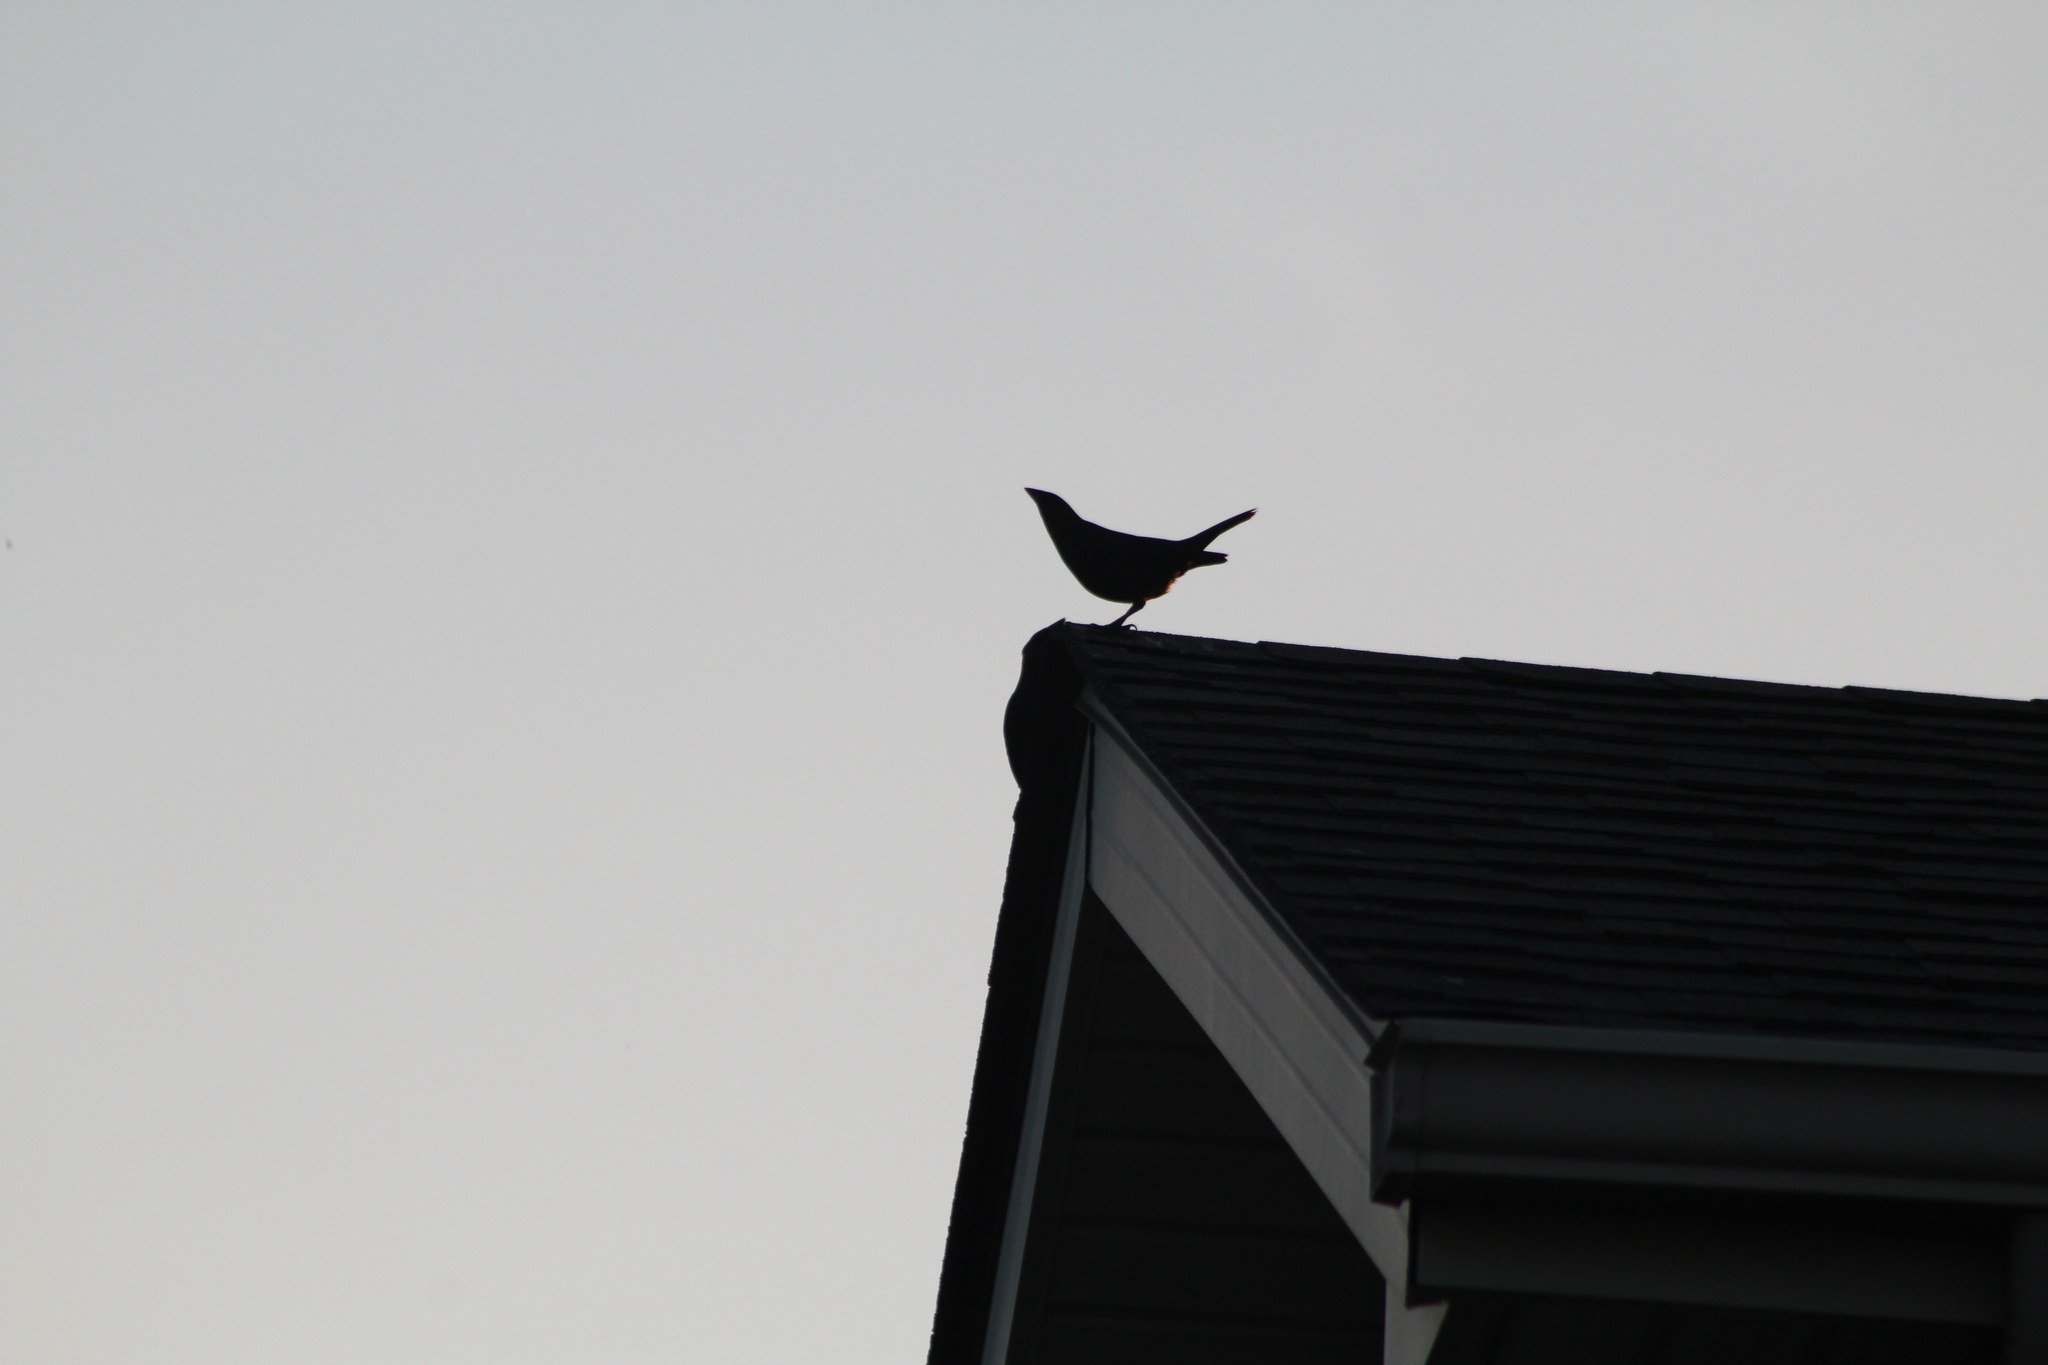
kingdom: Animalia
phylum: Chordata
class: Aves
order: Passeriformes
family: Icteridae
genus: Molothrus
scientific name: Molothrus ater
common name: Brown-headed cowbird
